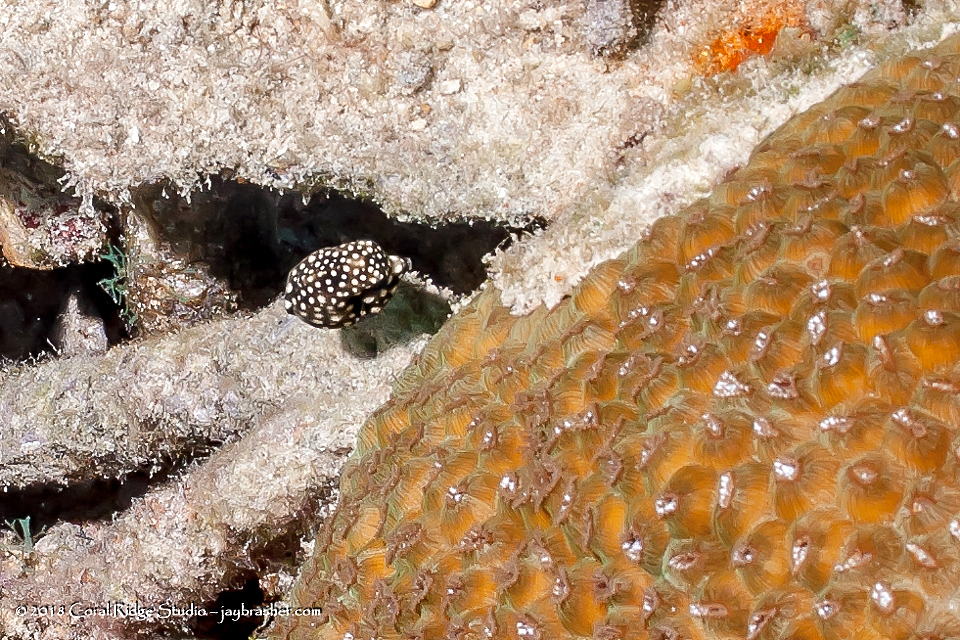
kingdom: Animalia
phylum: Chordata
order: Tetraodontiformes
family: Ostraciidae
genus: Lactophrys
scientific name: Lactophrys triqueter
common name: Smooth trunkfish
